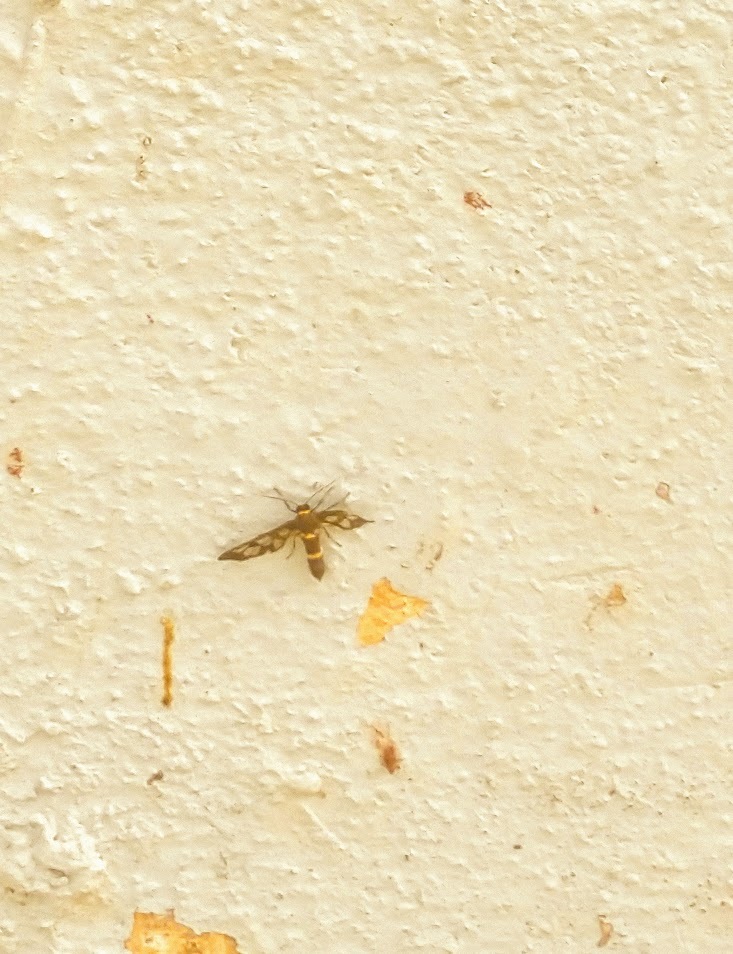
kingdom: Animalia
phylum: Arthropoda
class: Insecta
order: Lepidoptera
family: Erebidae
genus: Syntomoides
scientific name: Syntomoides imaon
